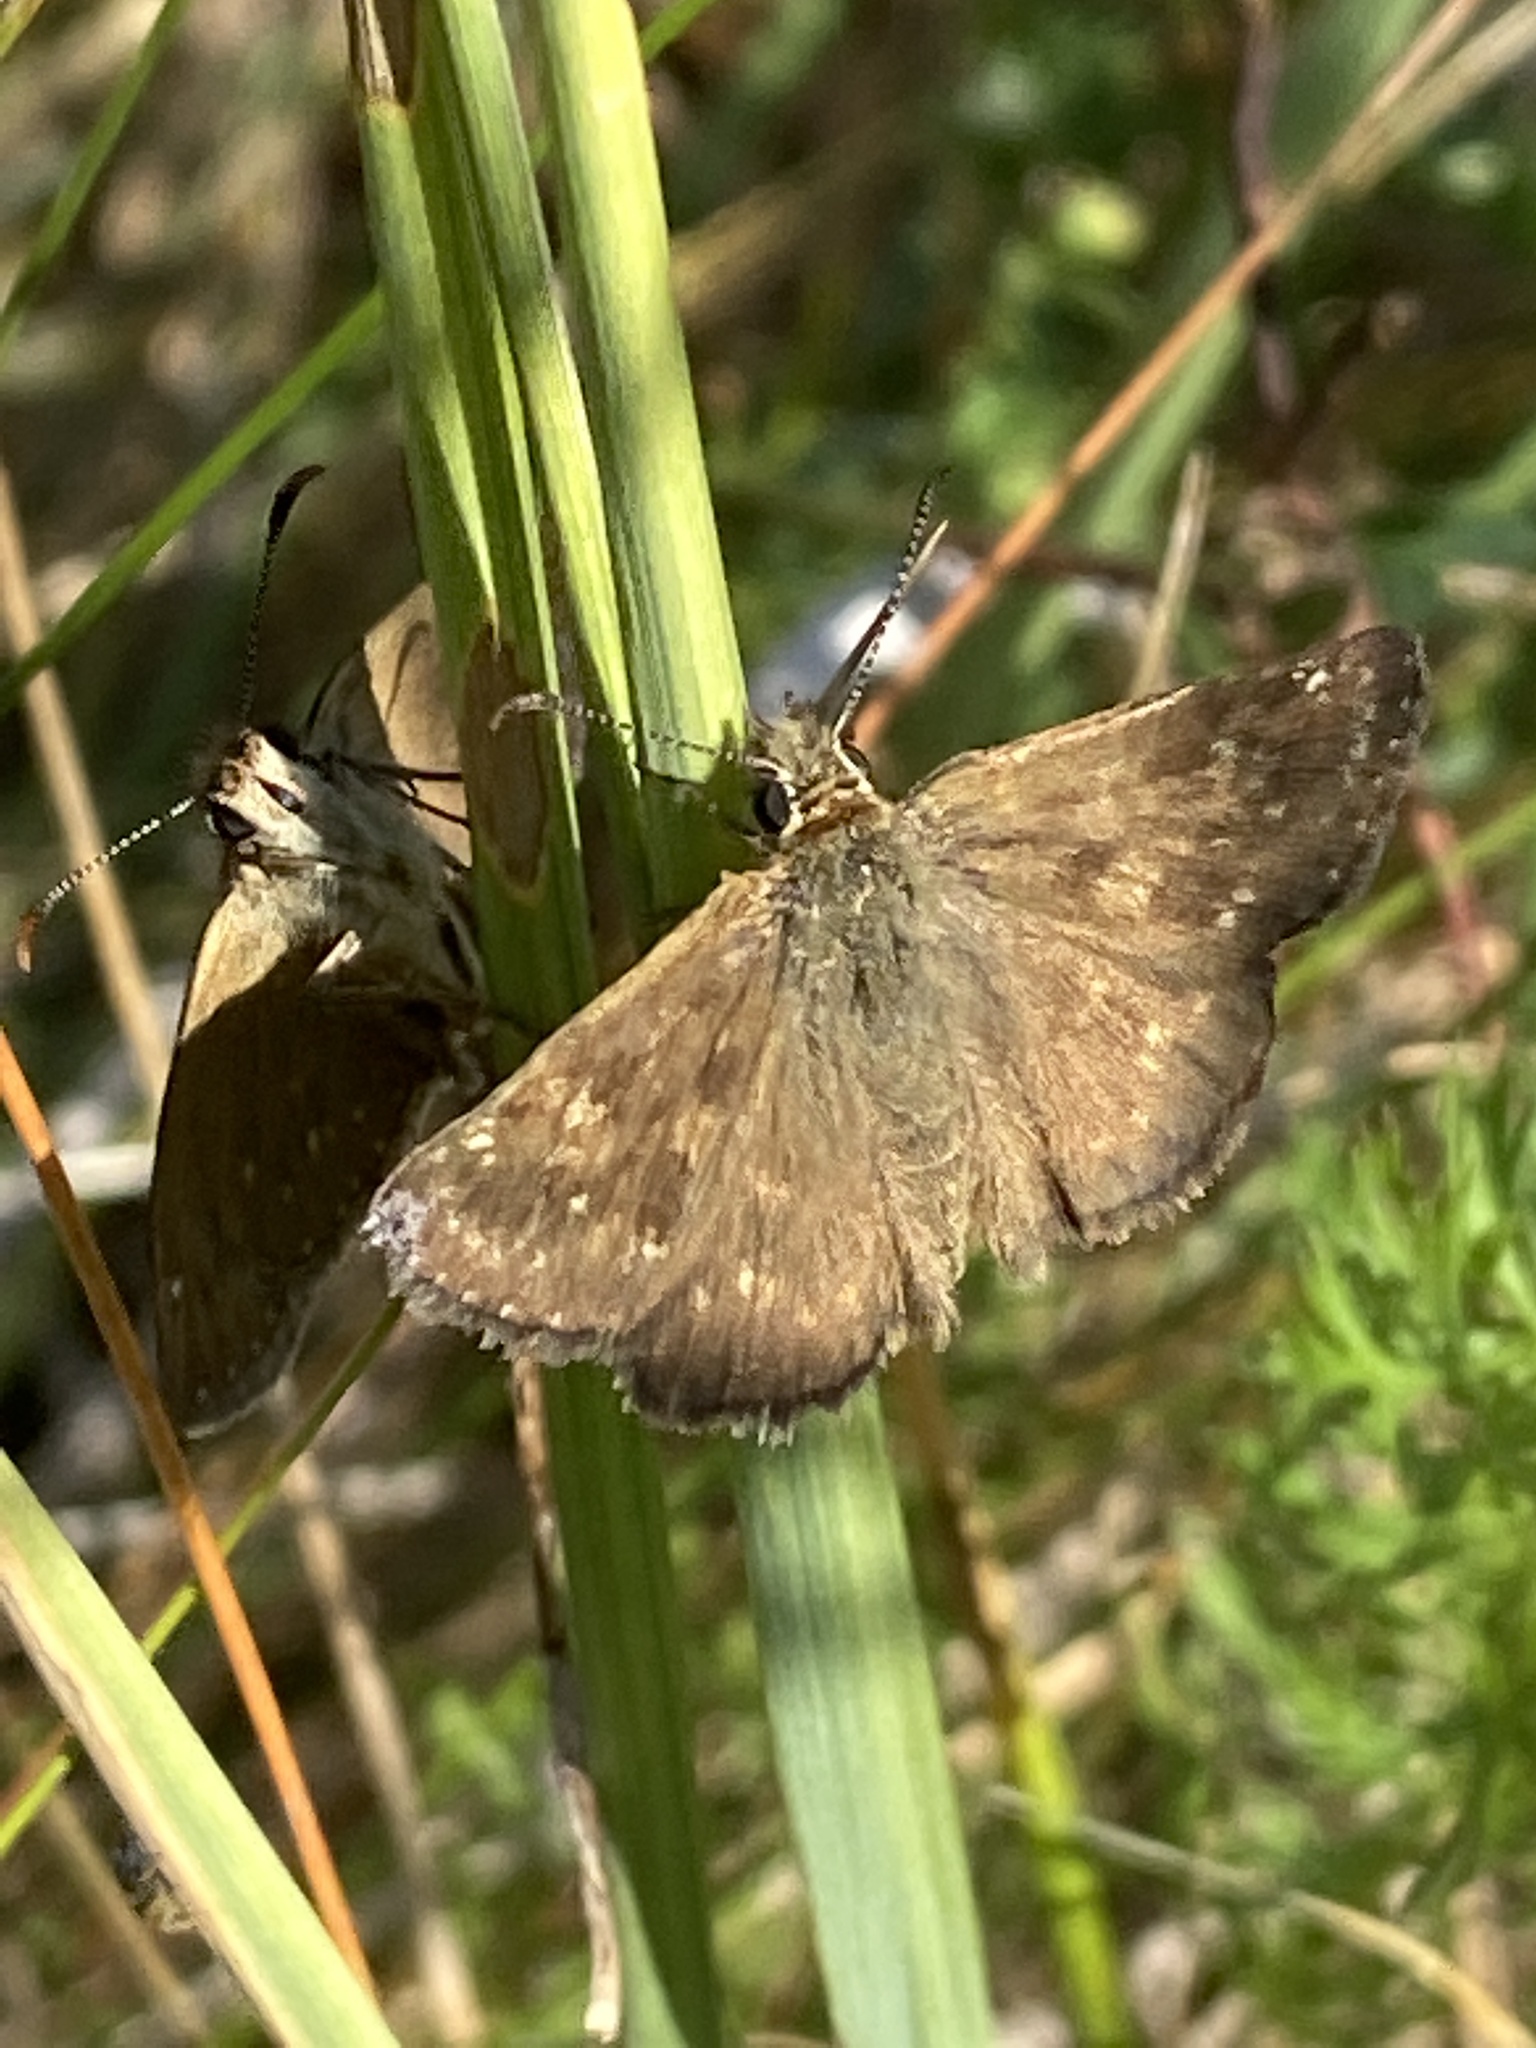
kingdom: Animalia
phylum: Arthropoda
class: Insecta
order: Lepidoptera
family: Hesperiidae
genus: Erynnis
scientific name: Erynnis tages
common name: Dingy skipper
